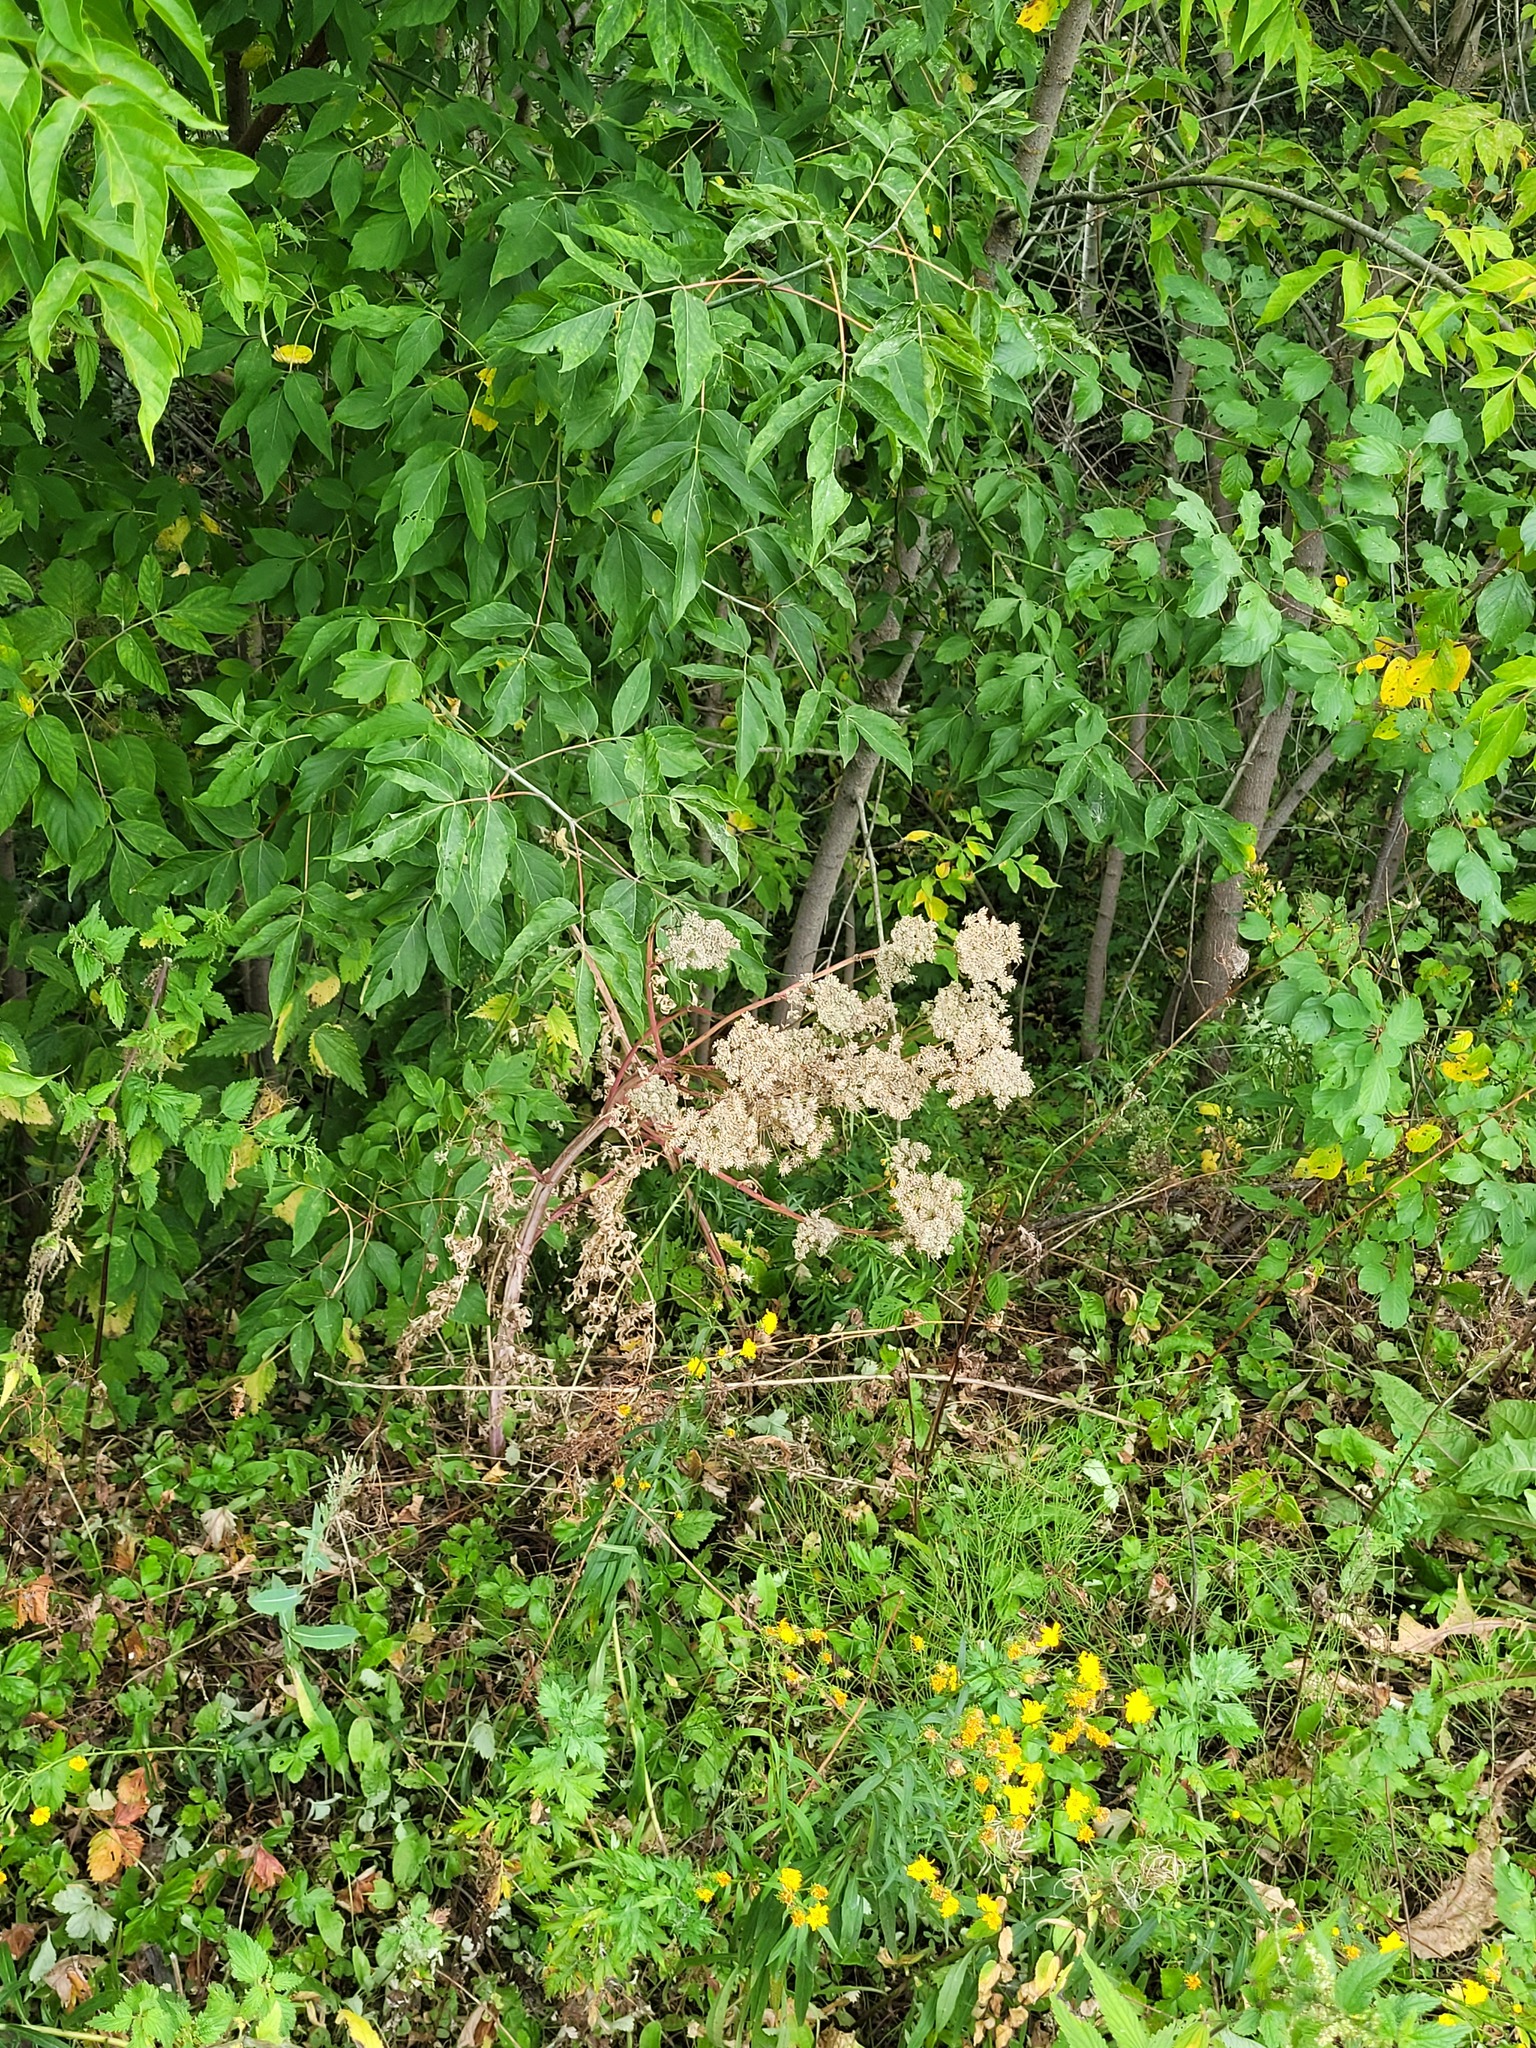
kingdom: Plantae
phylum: Tracheophyta
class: Magnoliopsida
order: Apiales
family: Apiaceae
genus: Seseli
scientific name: Seseli libanotis
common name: Mooncarrot
